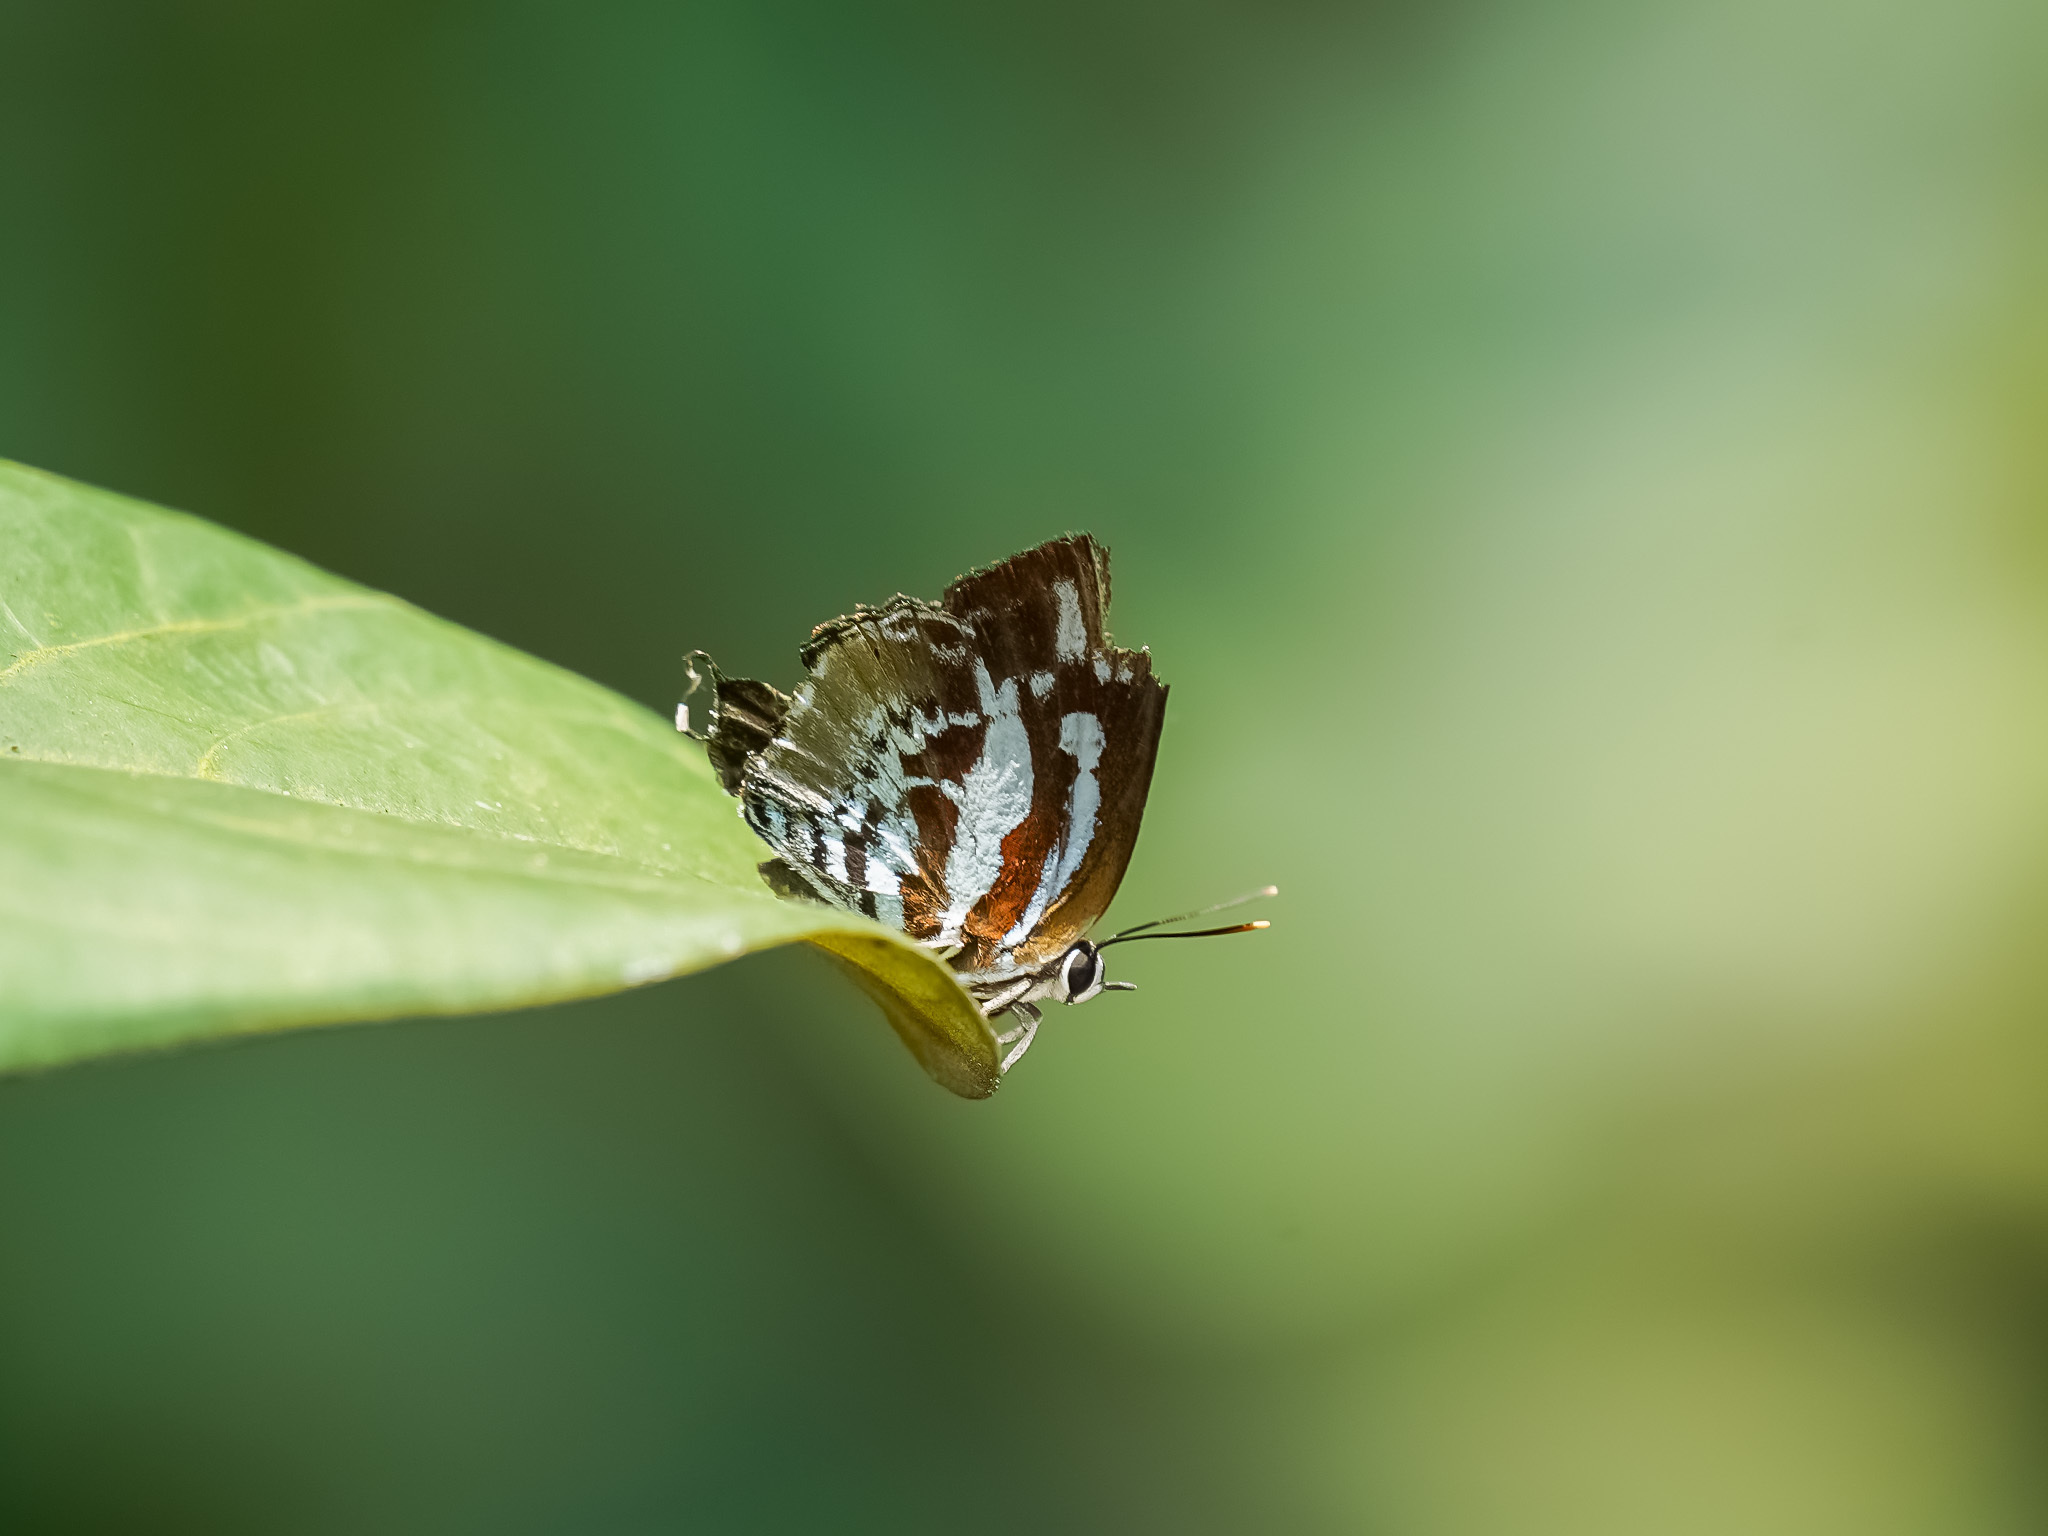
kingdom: Animalia
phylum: Arthropoda
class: Insecta
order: Lepidoptera
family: Lycaenidae
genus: Iraota
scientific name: Iraota rochana
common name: Scarce silverstreak blue
